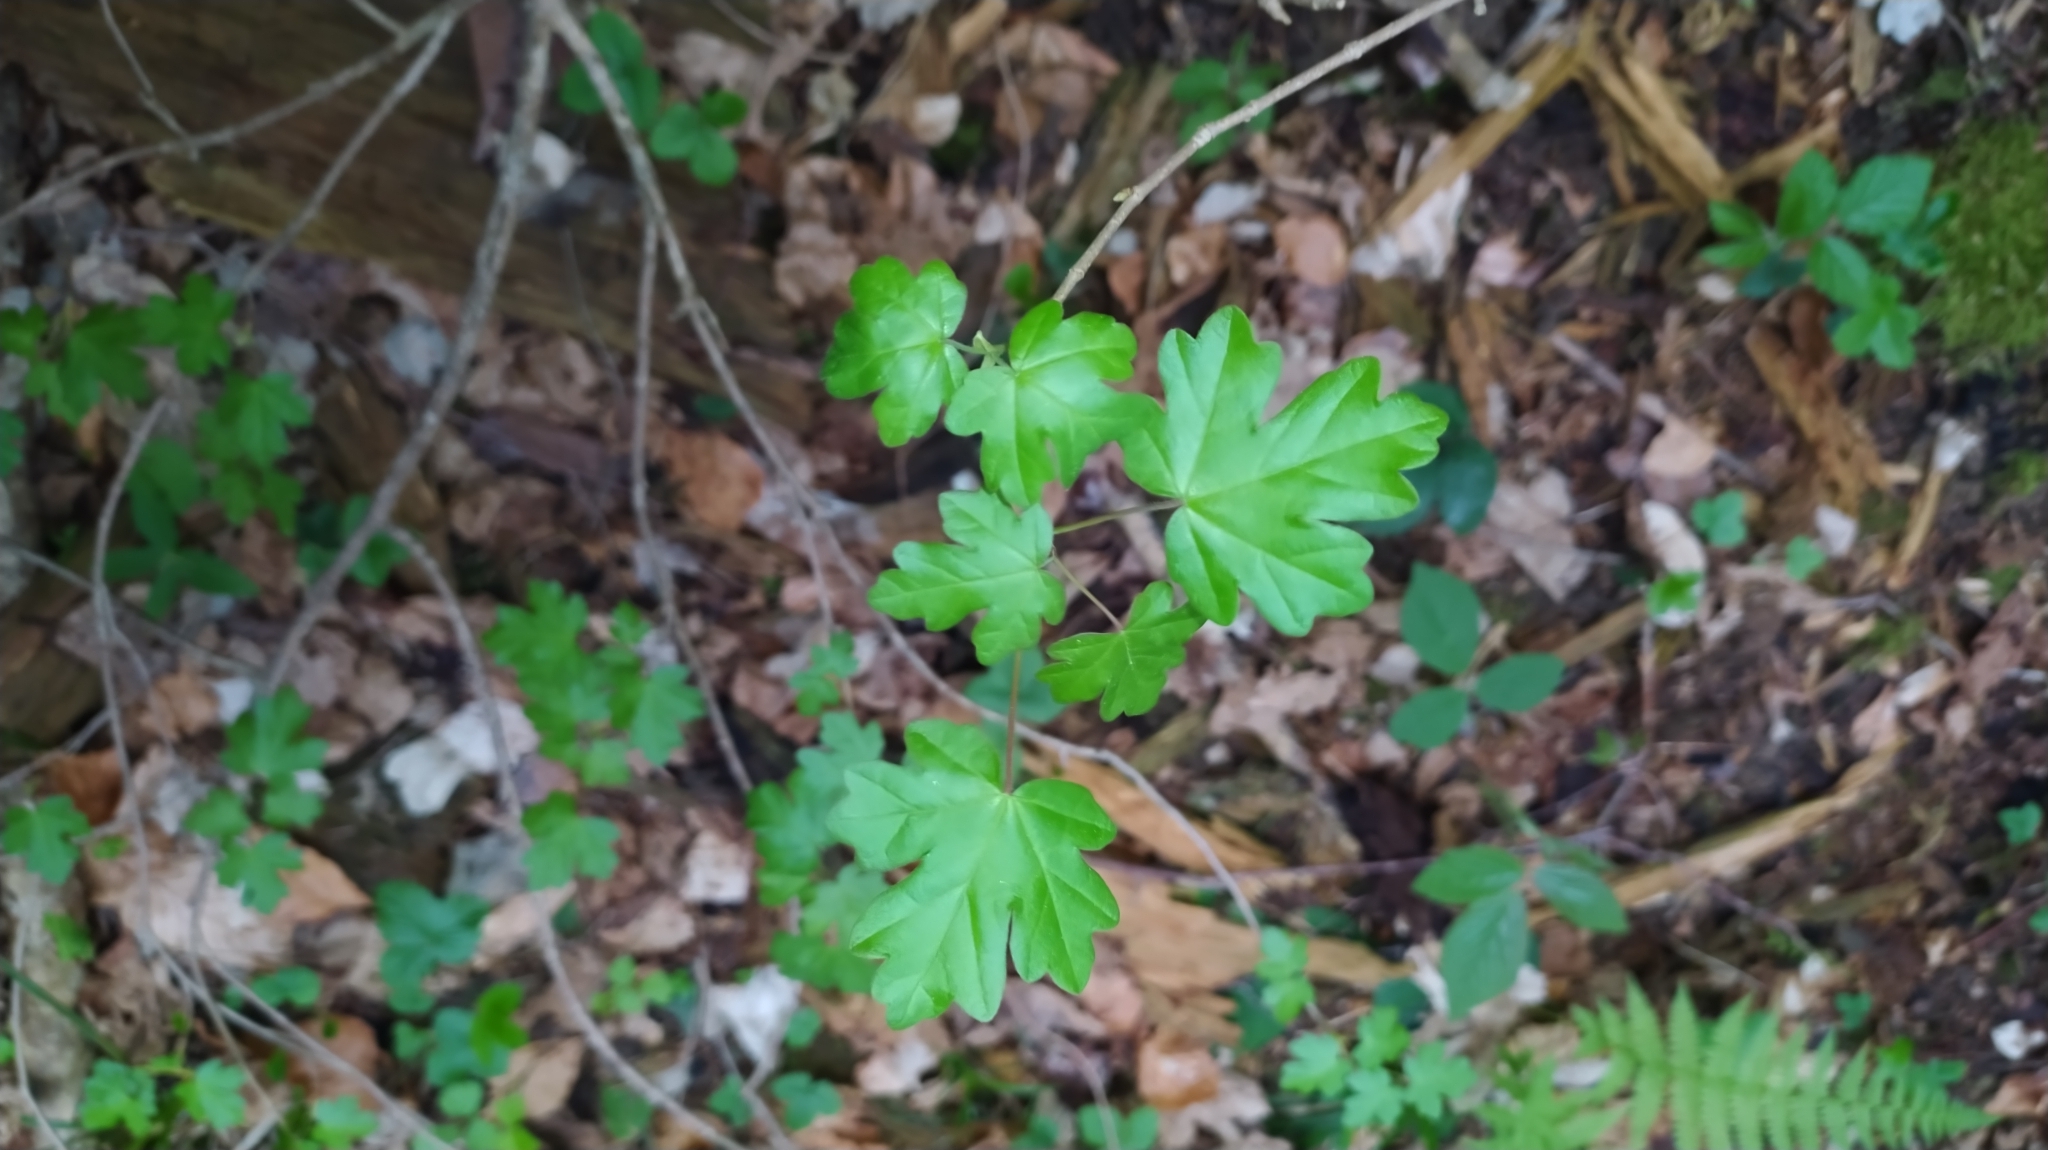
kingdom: Plantae
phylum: Tracheophyta
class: Magnoliopsida
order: Sapindales
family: Sapindaceae
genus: Acer
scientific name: Acer campestre
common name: Field maple
